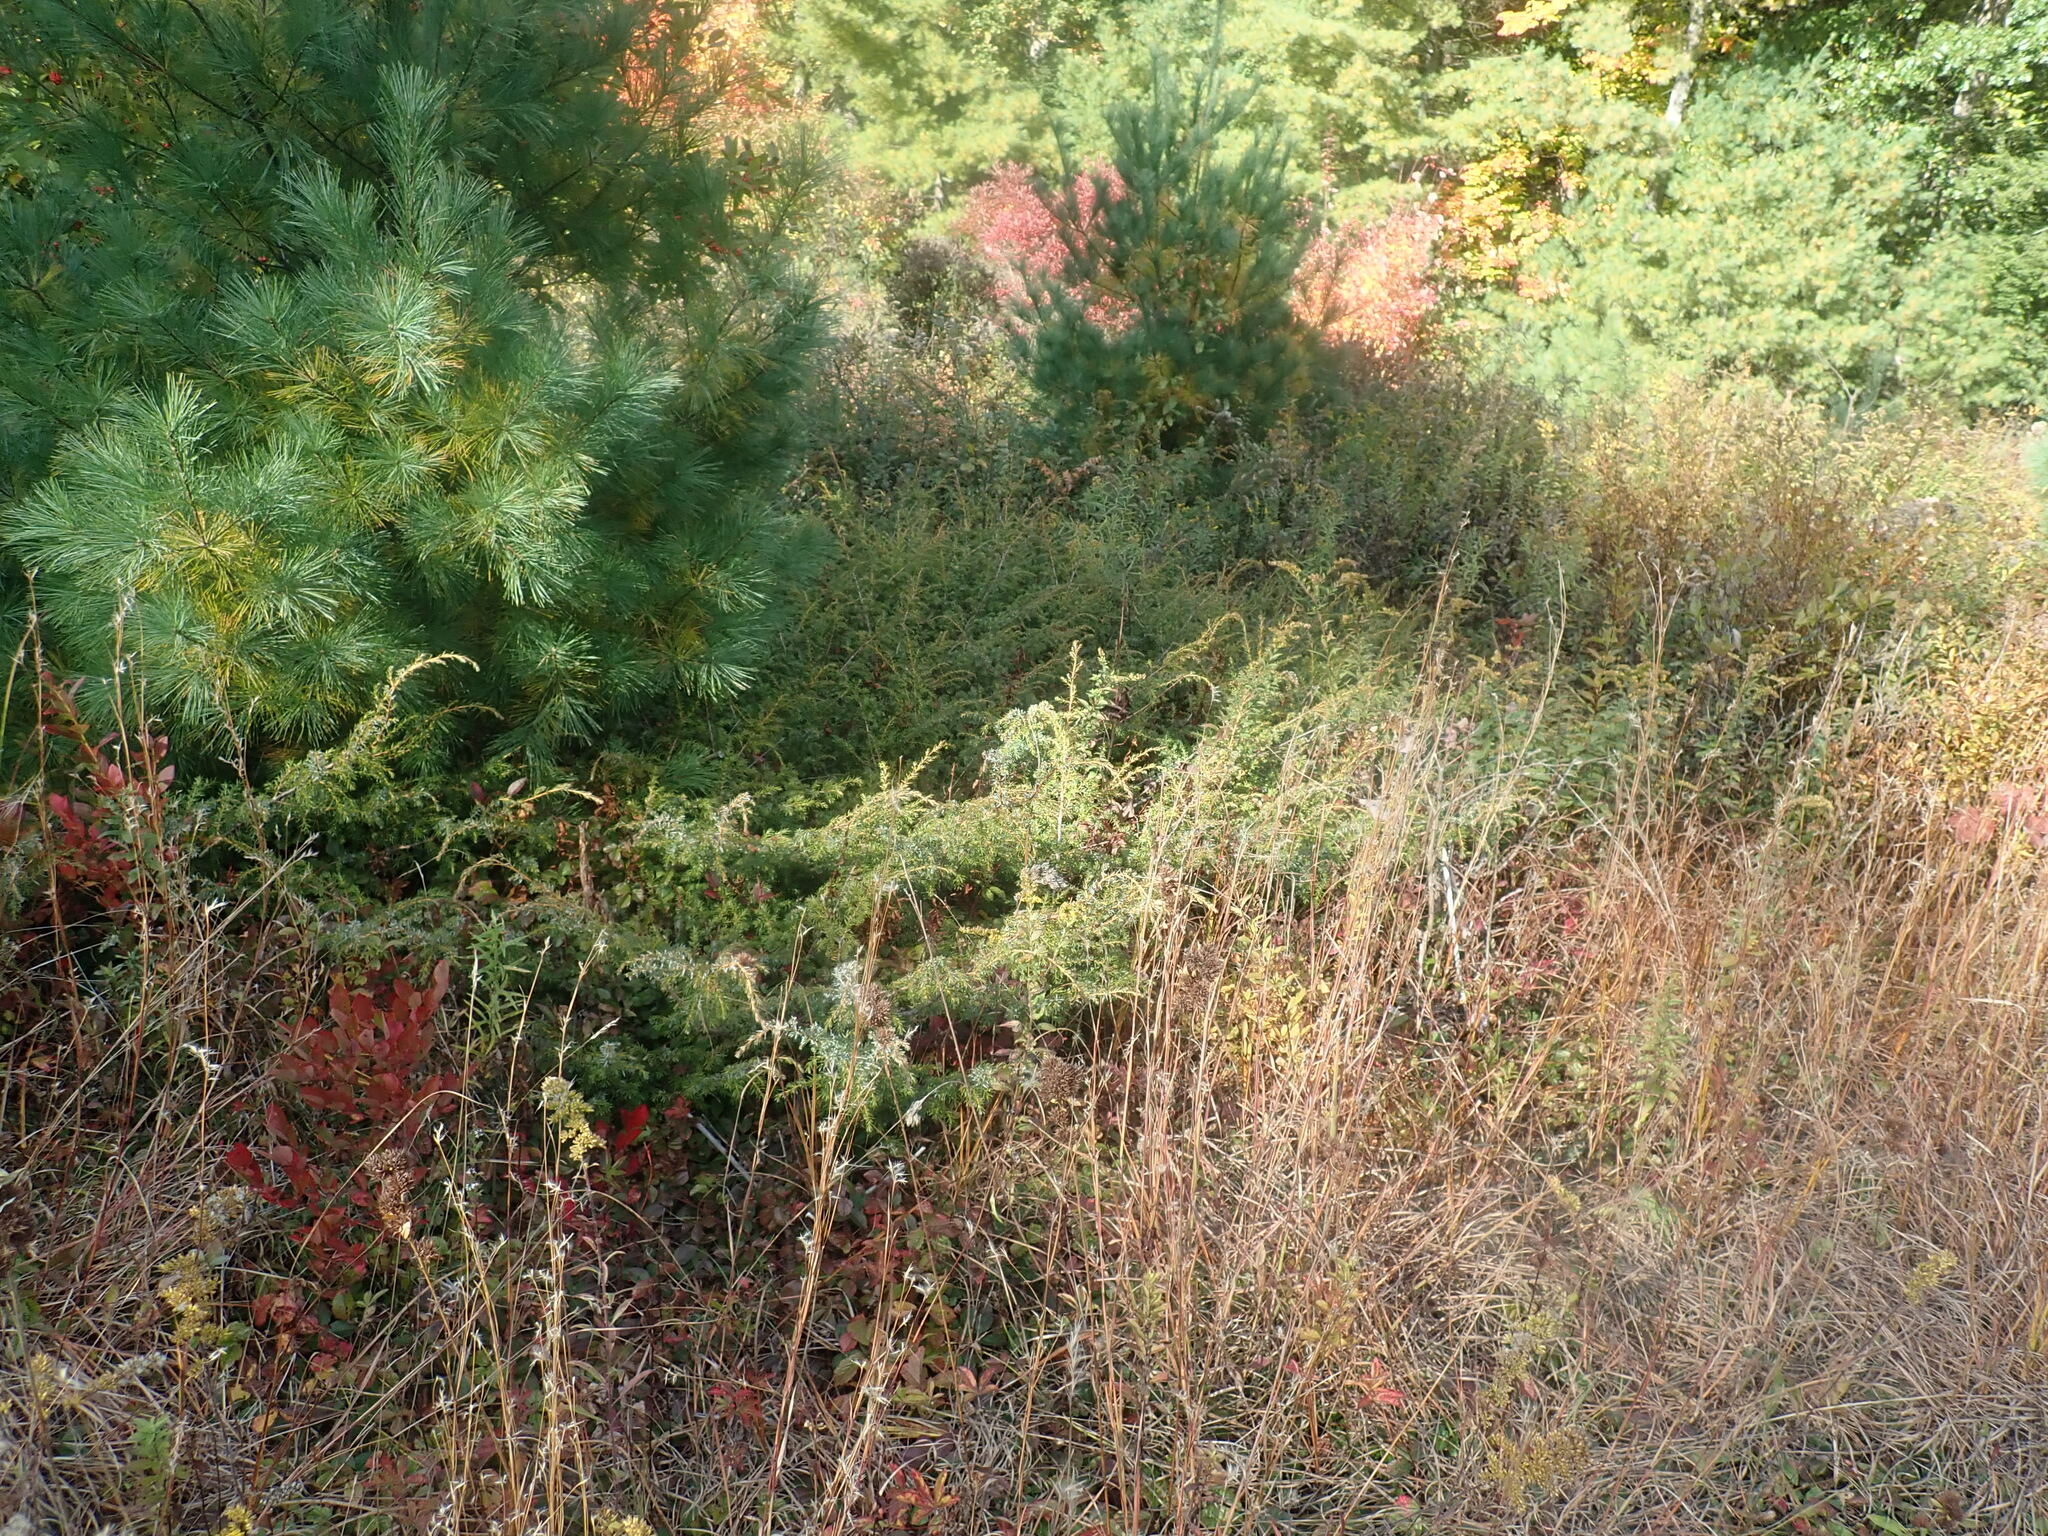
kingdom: Plantae
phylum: Tracheophyta
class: Pinopsida
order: Pinales
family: Cupressaceae
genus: Juniperus
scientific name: Juniperus communis
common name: Common juniper
